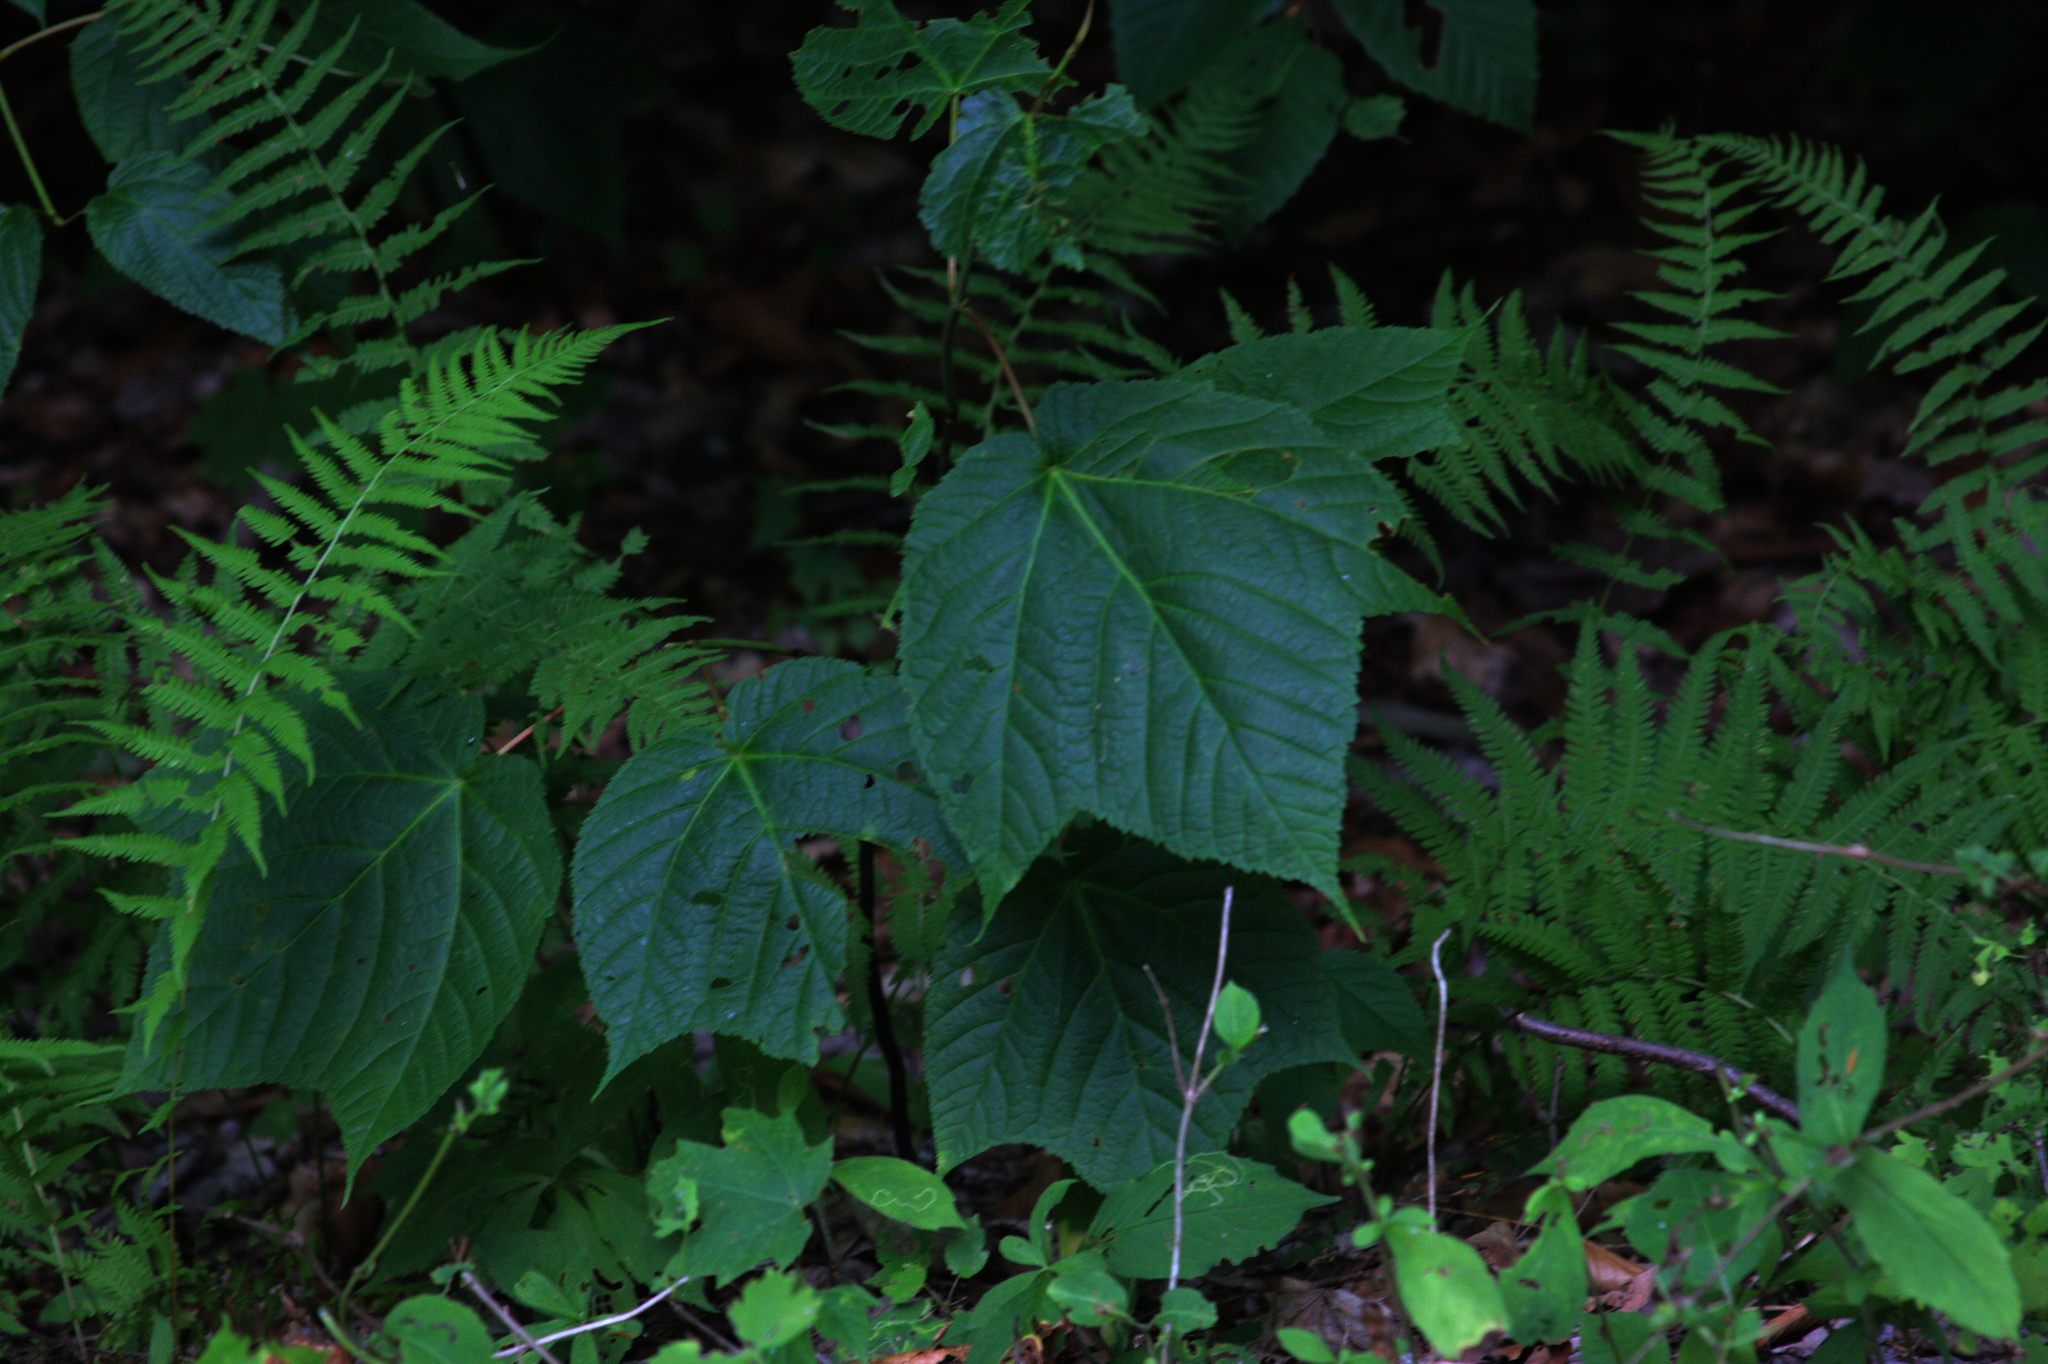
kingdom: Plantae
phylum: Tracheophyta
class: Magnoliopsida
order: Sapindales
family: Sapindaceae
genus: Acer
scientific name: Acer pensylvanicum
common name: Moosewood
